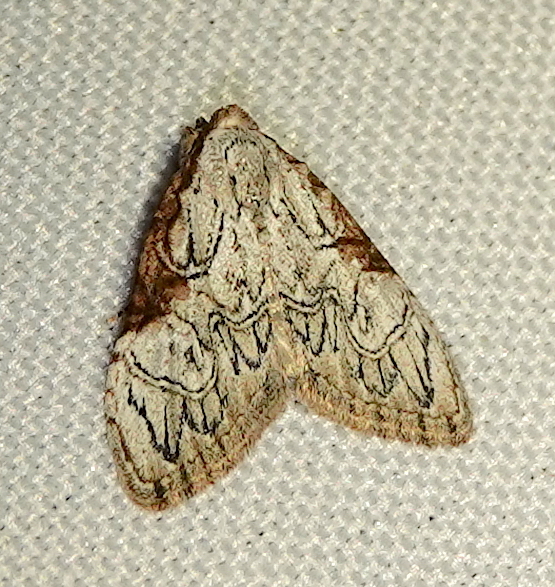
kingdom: Animalia
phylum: Arthropoda
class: Insecta
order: Lepidoptera
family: Nolidae
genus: Nola
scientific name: Nola bifiliferata
